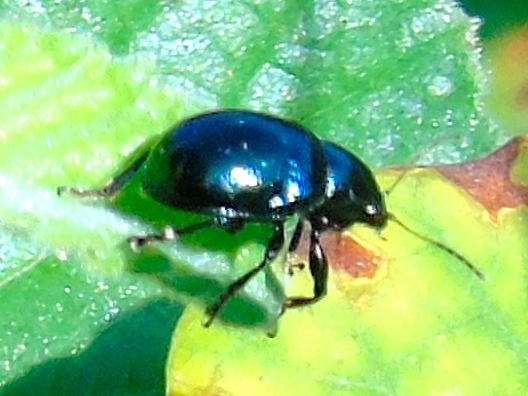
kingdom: Animalia
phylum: Arthropoda
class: Insecta
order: Coleoptera
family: Chrysomelidae
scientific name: Chrysomelidae
